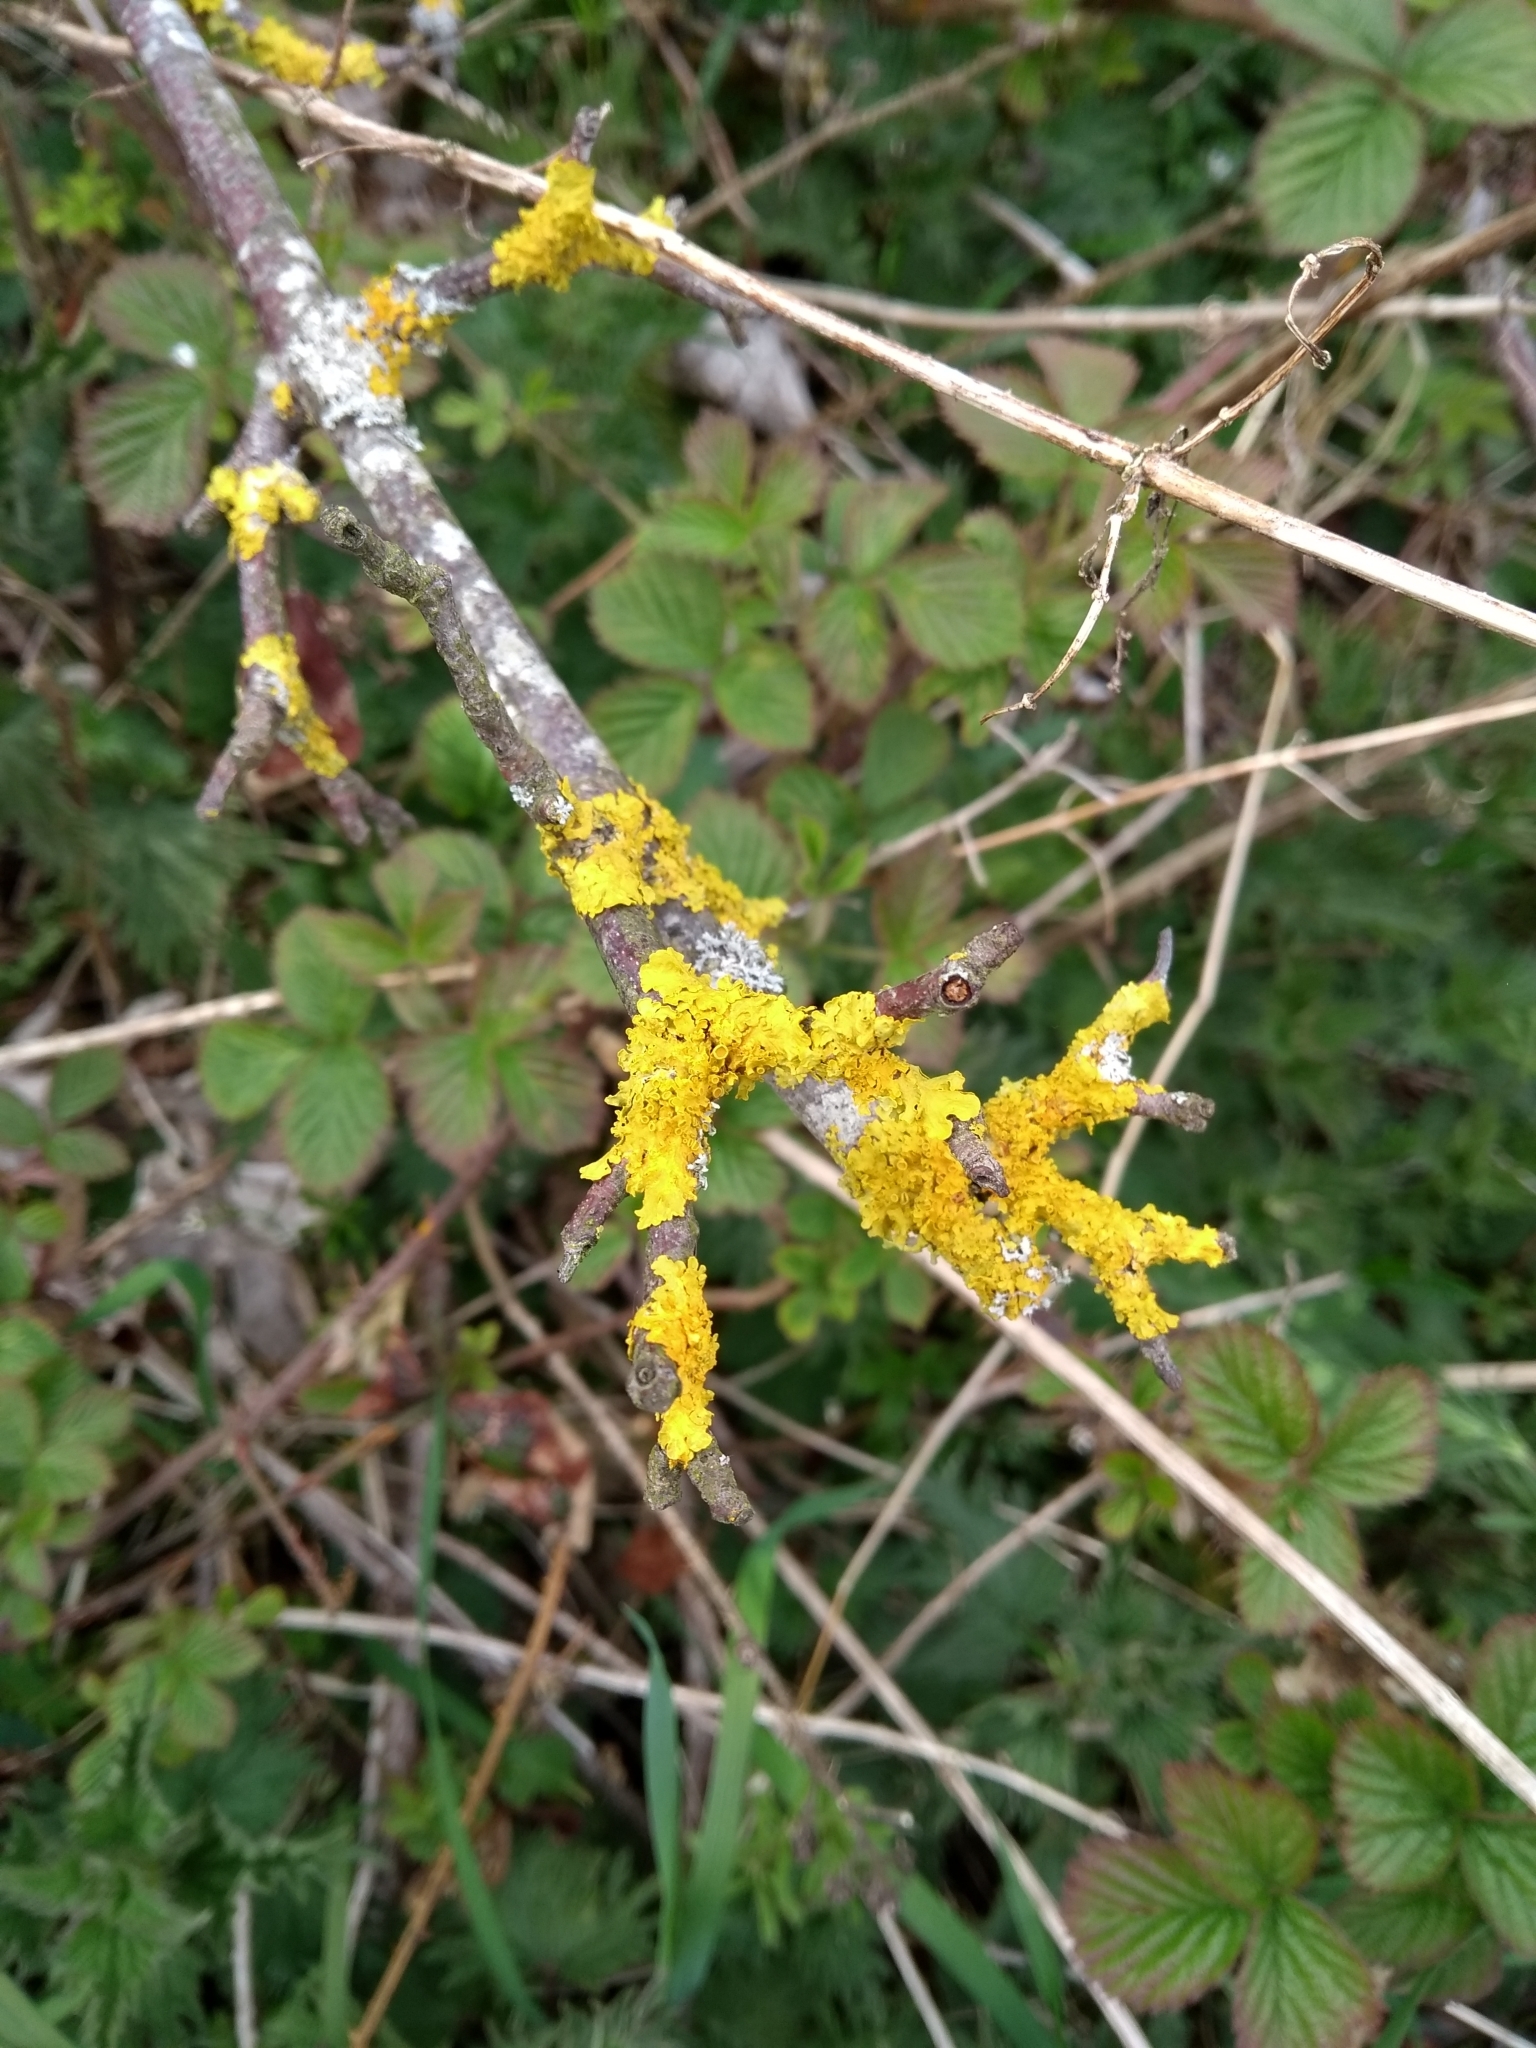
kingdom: Fungi
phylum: Ascomycota
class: Lecanoromycetes
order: Teloschistales
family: Teloschistaceae
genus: Xanthoria
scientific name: Xanthoria parietina
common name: Common orange lichen
